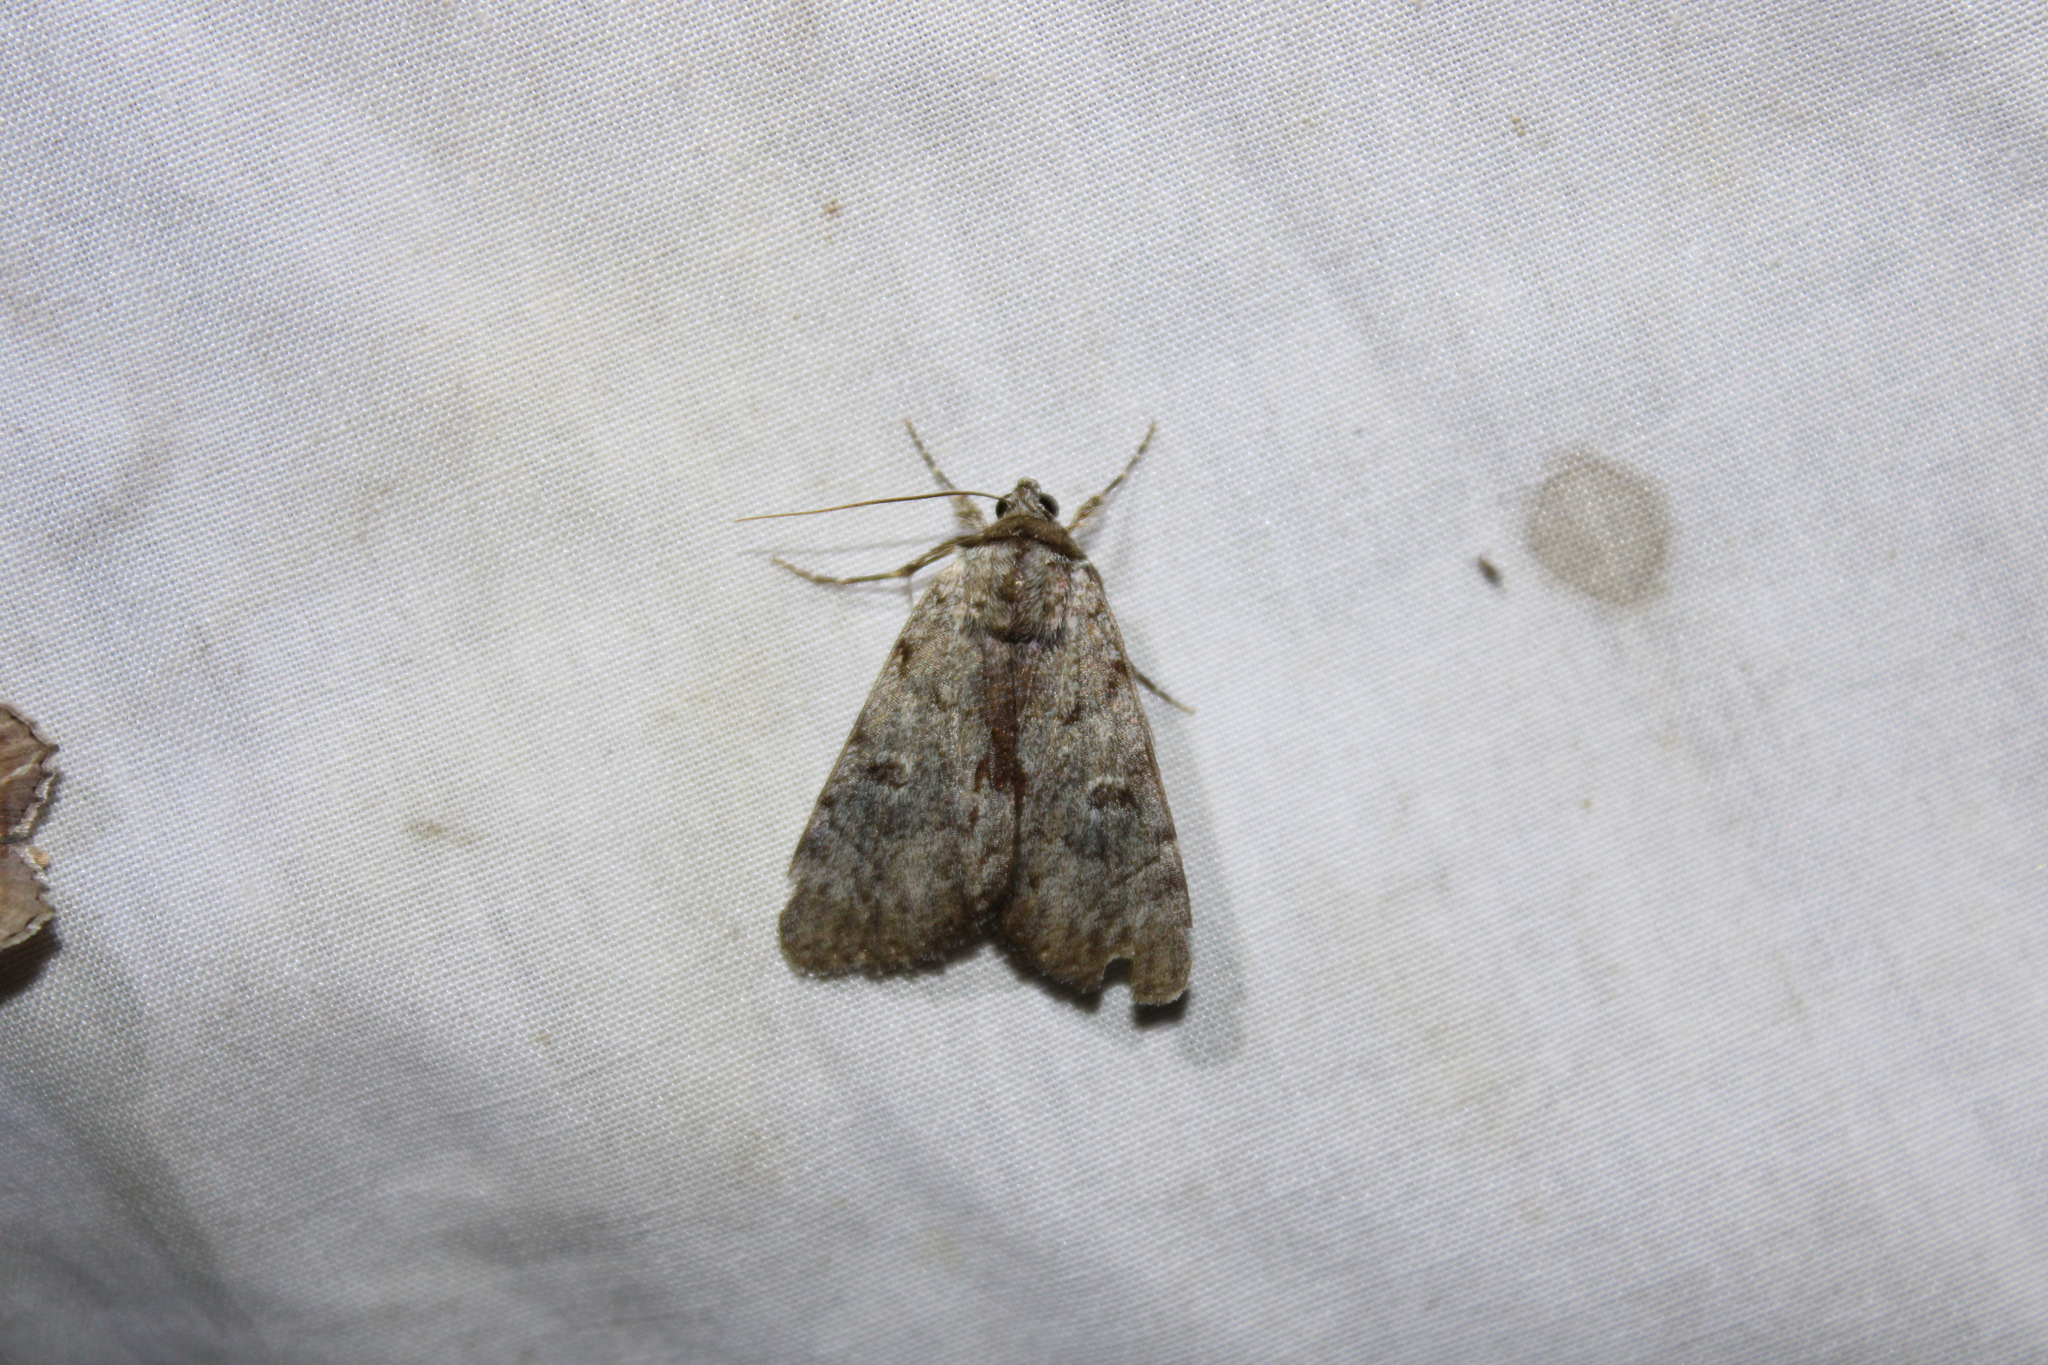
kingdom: Animalia
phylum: Arthropoda
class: Insecta
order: Lepidoptera
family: Erebidae
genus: Catocala
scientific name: Catocala sordida
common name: Sordid underwing
